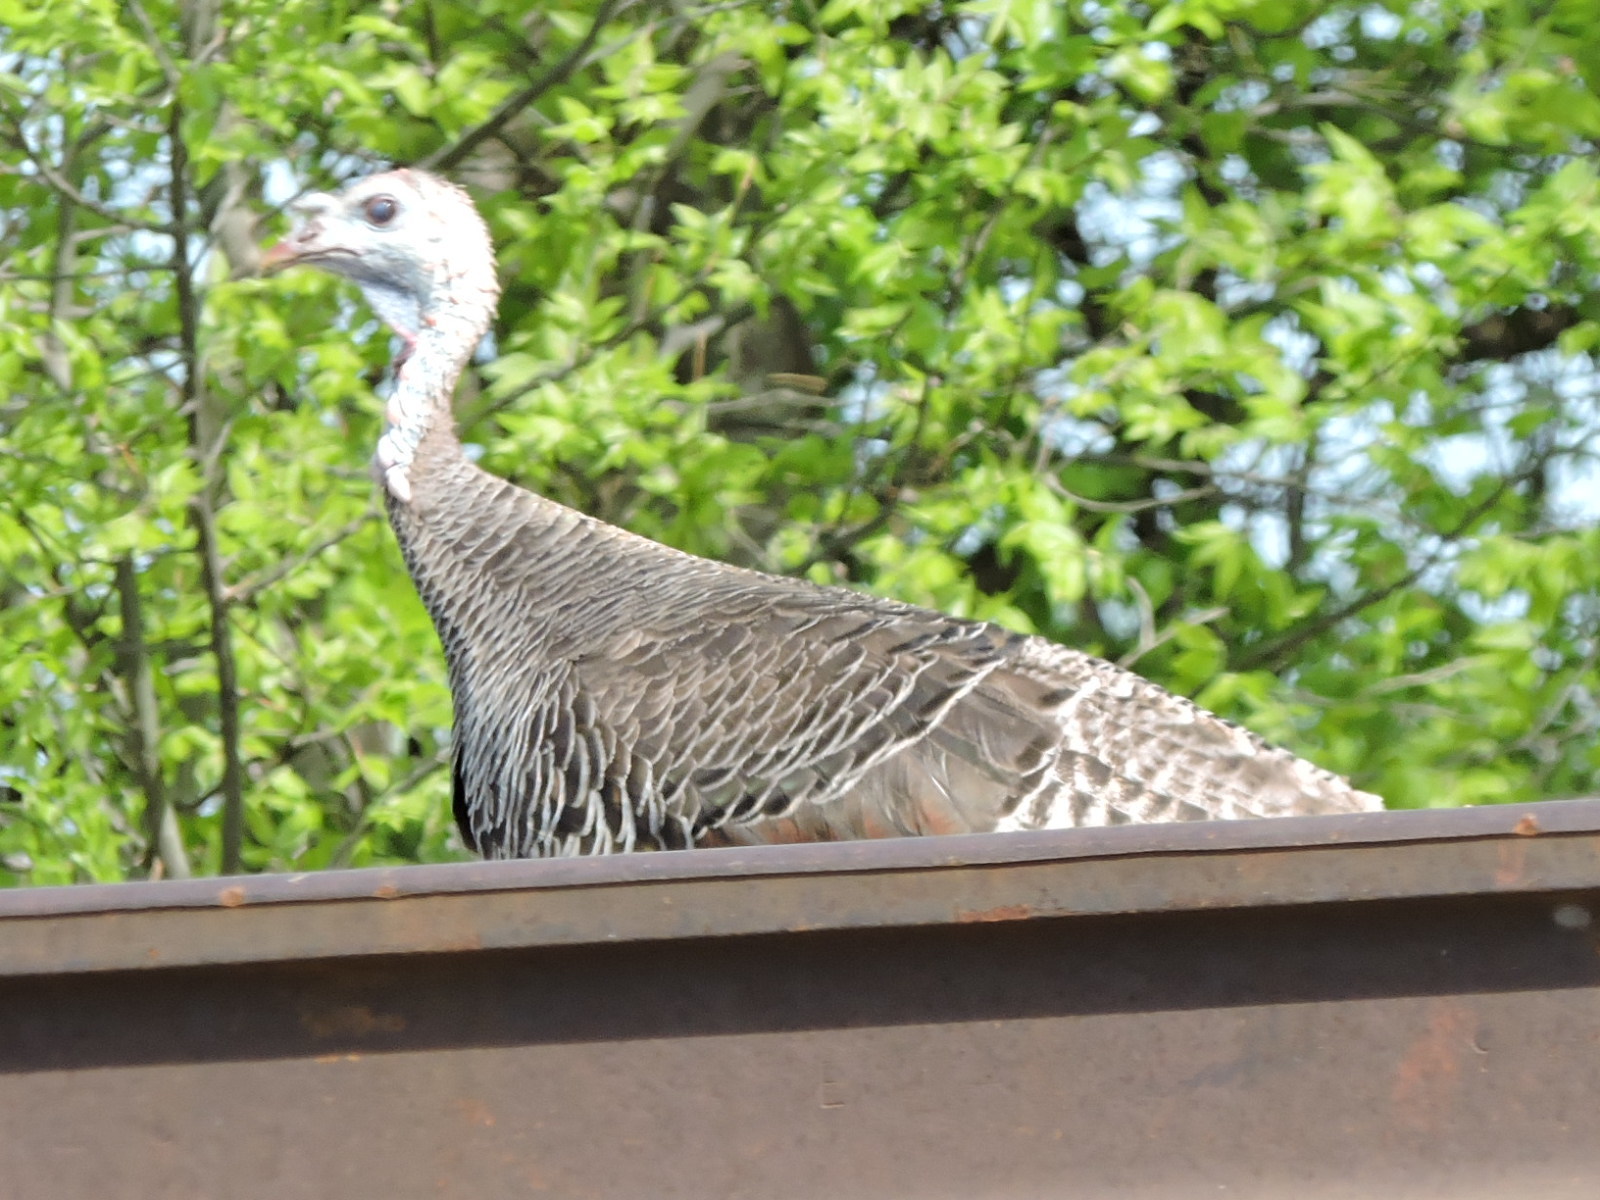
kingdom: Animalia
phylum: Chordata
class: Aves
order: Galliformes
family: Phasianidae
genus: Meleagris
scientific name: Meleagris gallopavo
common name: Wild turkey
